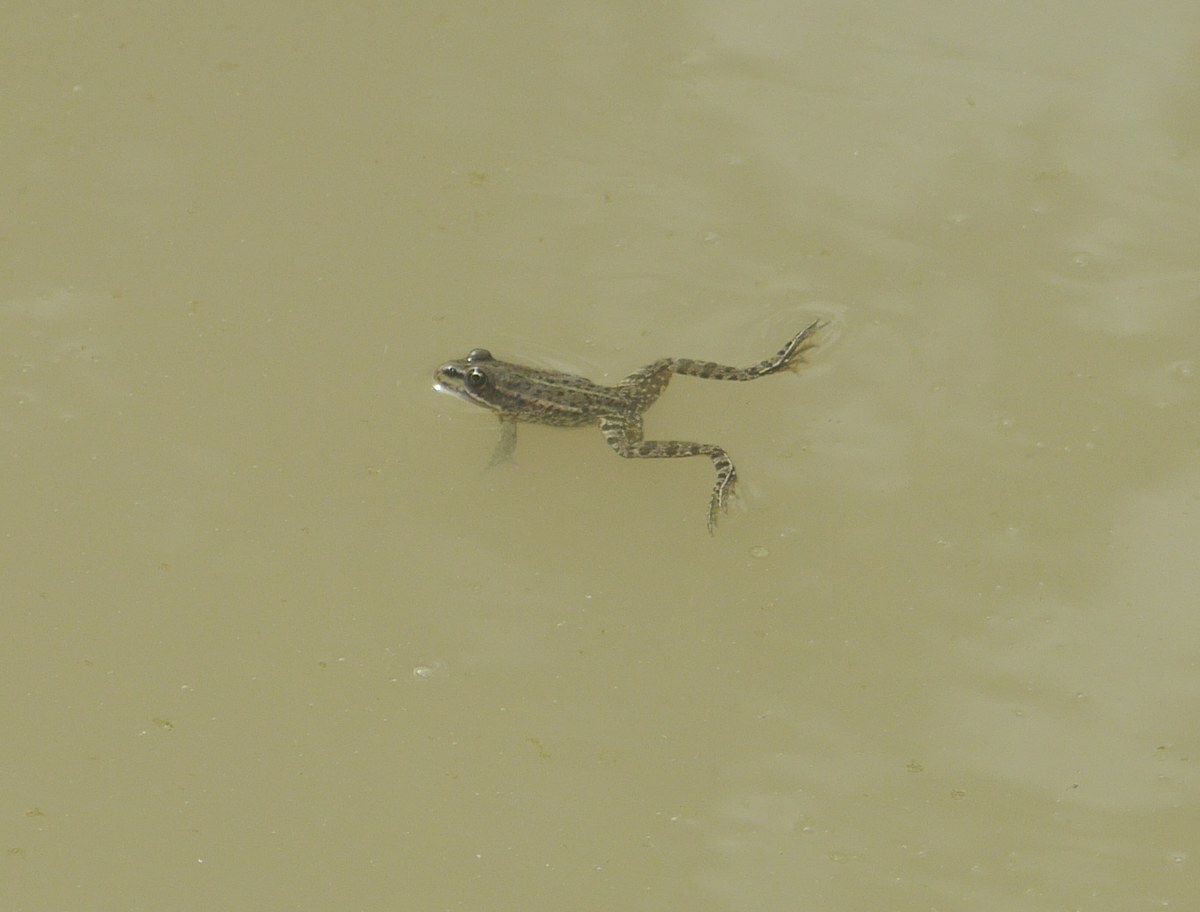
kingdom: Animalia
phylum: Chordata
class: Amphibia
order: Anura
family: Ranidae
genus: Pelophylax
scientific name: Pelophylax ridibundus
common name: Marsh frog
